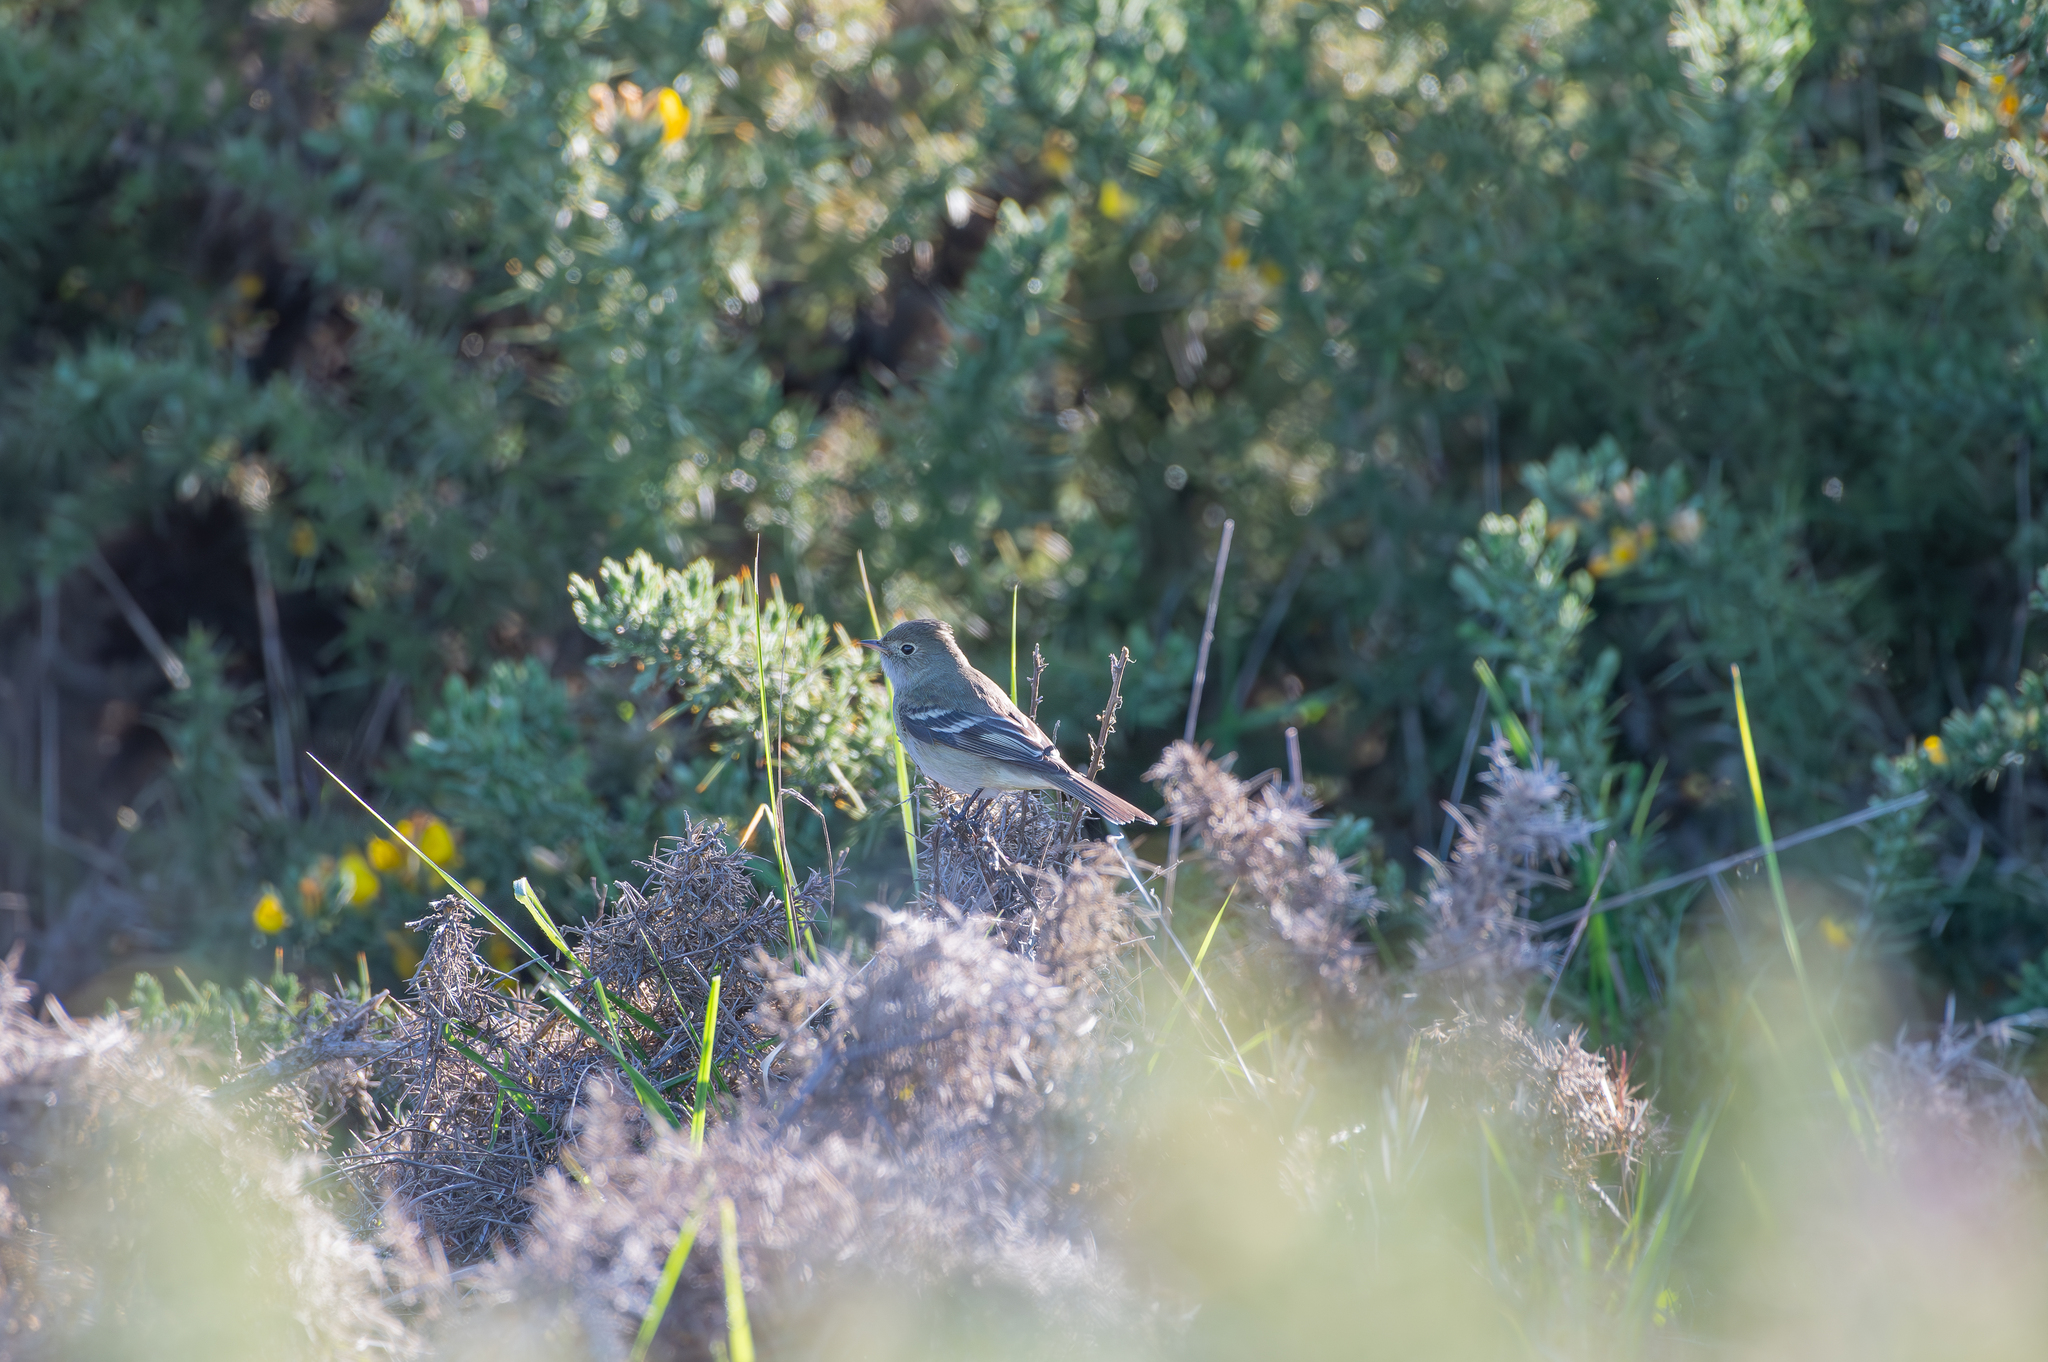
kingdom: Animalia
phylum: Chordata
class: Aves
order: Passeriformes
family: Tyrannidae
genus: Elaenia
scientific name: Elaenia albiceps
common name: White-crested elaenia
